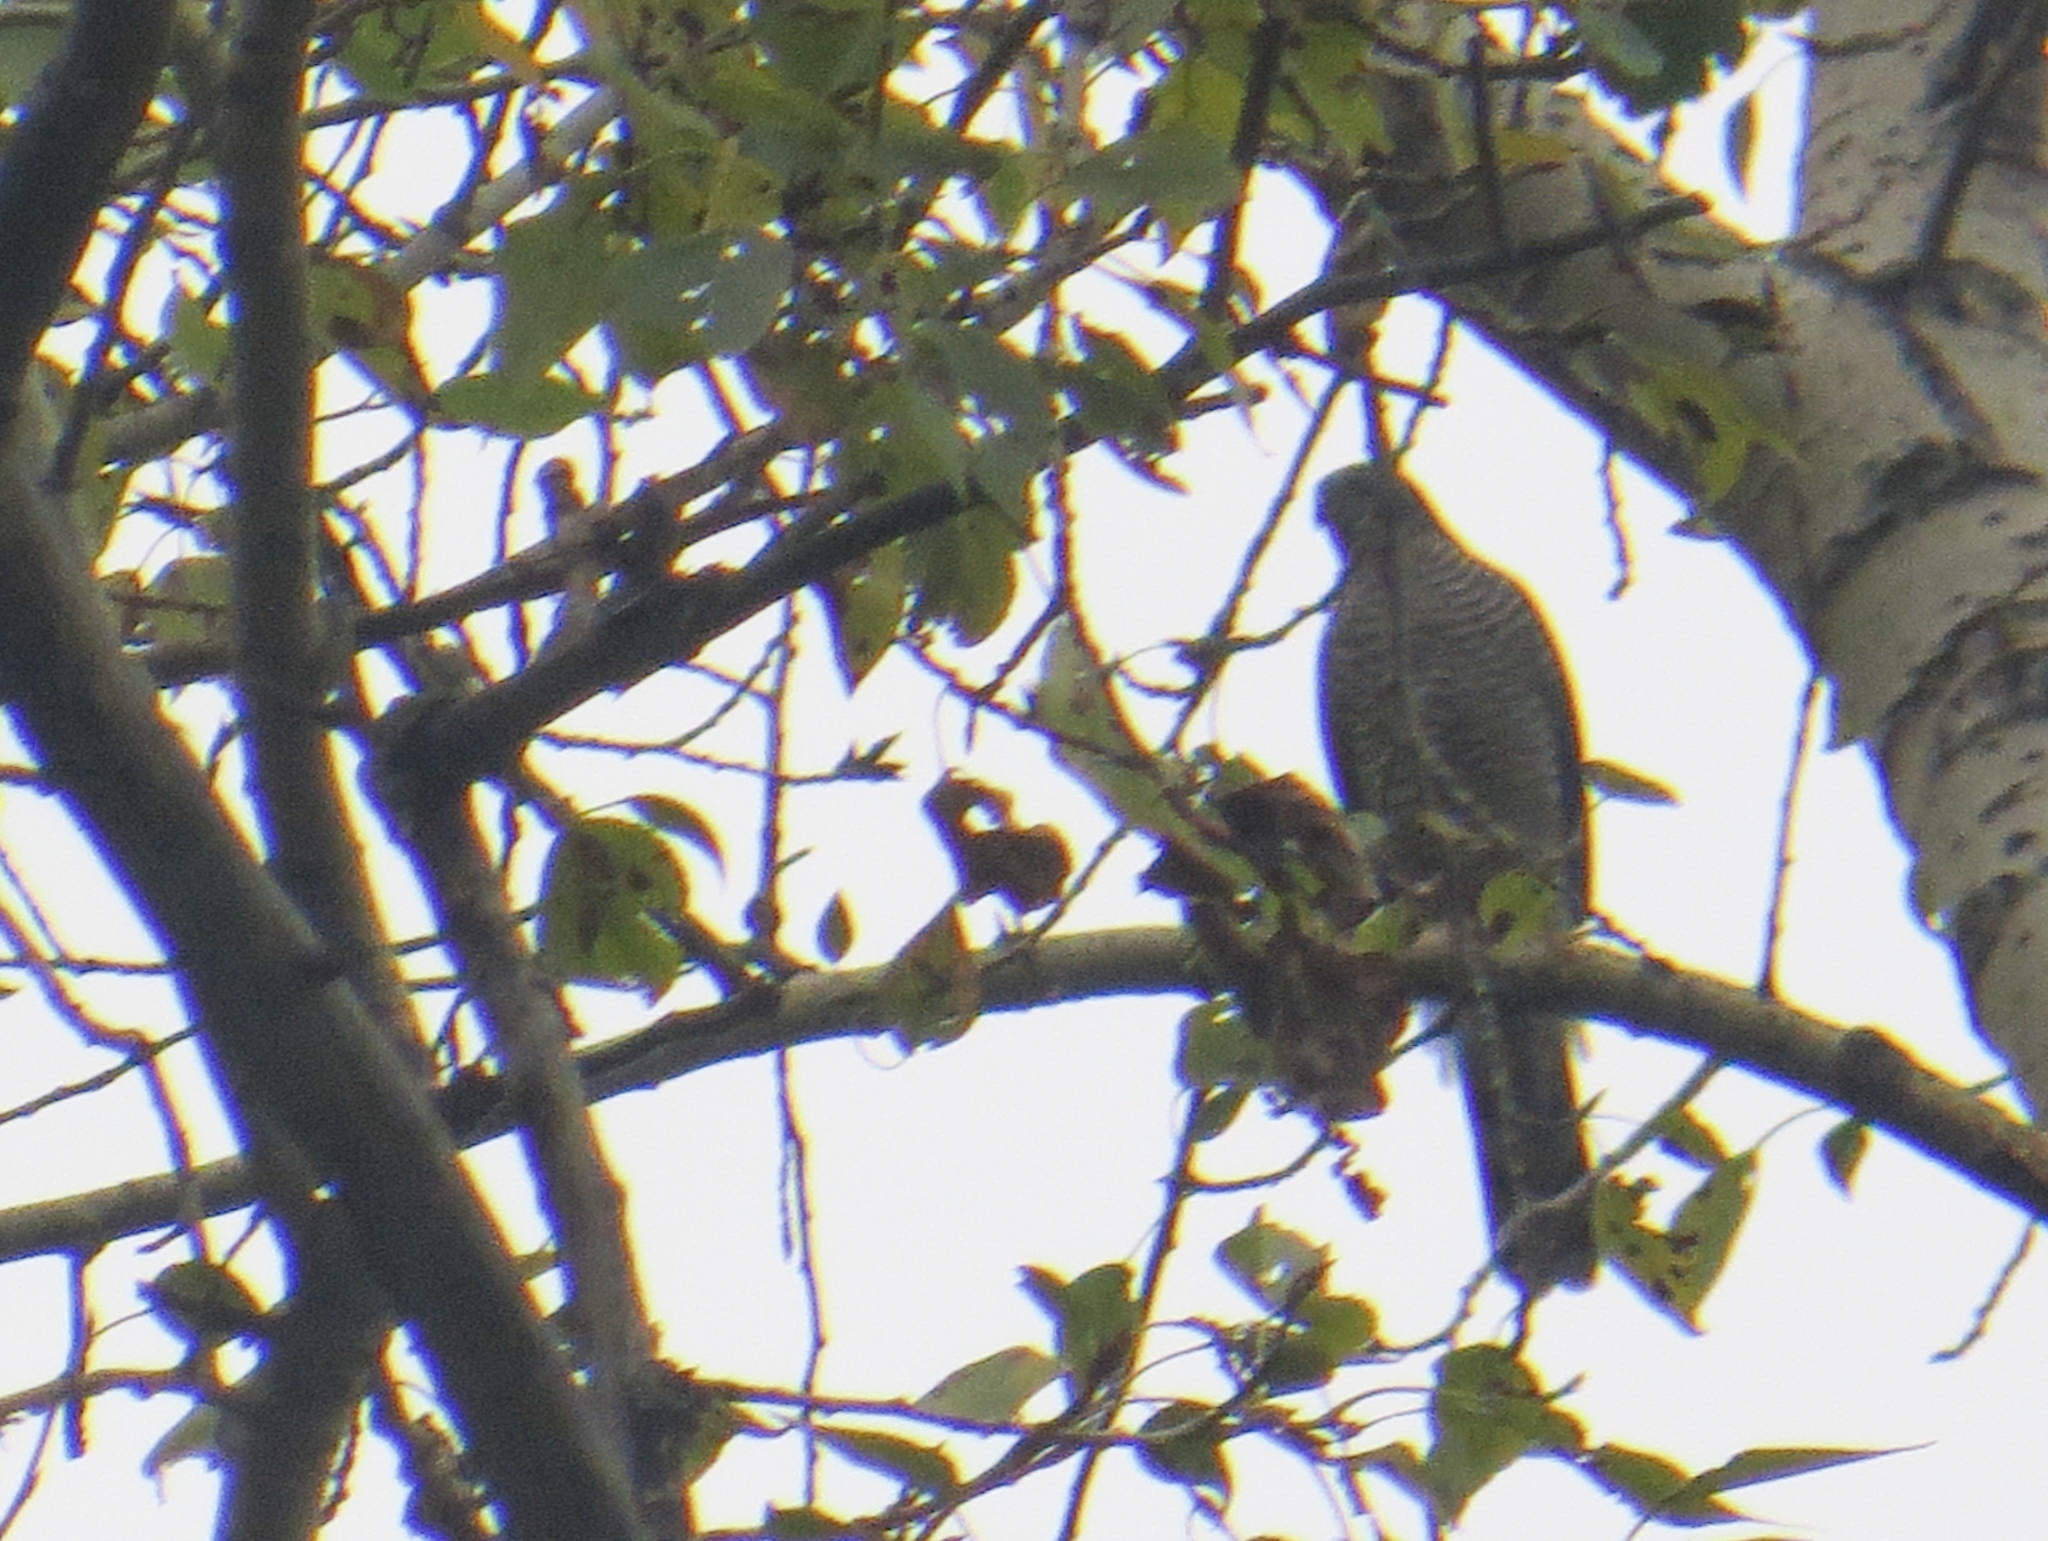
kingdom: Animalia
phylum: Chordata
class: Aves
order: Accipitriformes
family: Accipitridae
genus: Accipiter
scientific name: Accipiter nisus
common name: Eurasian sparrowhawk
